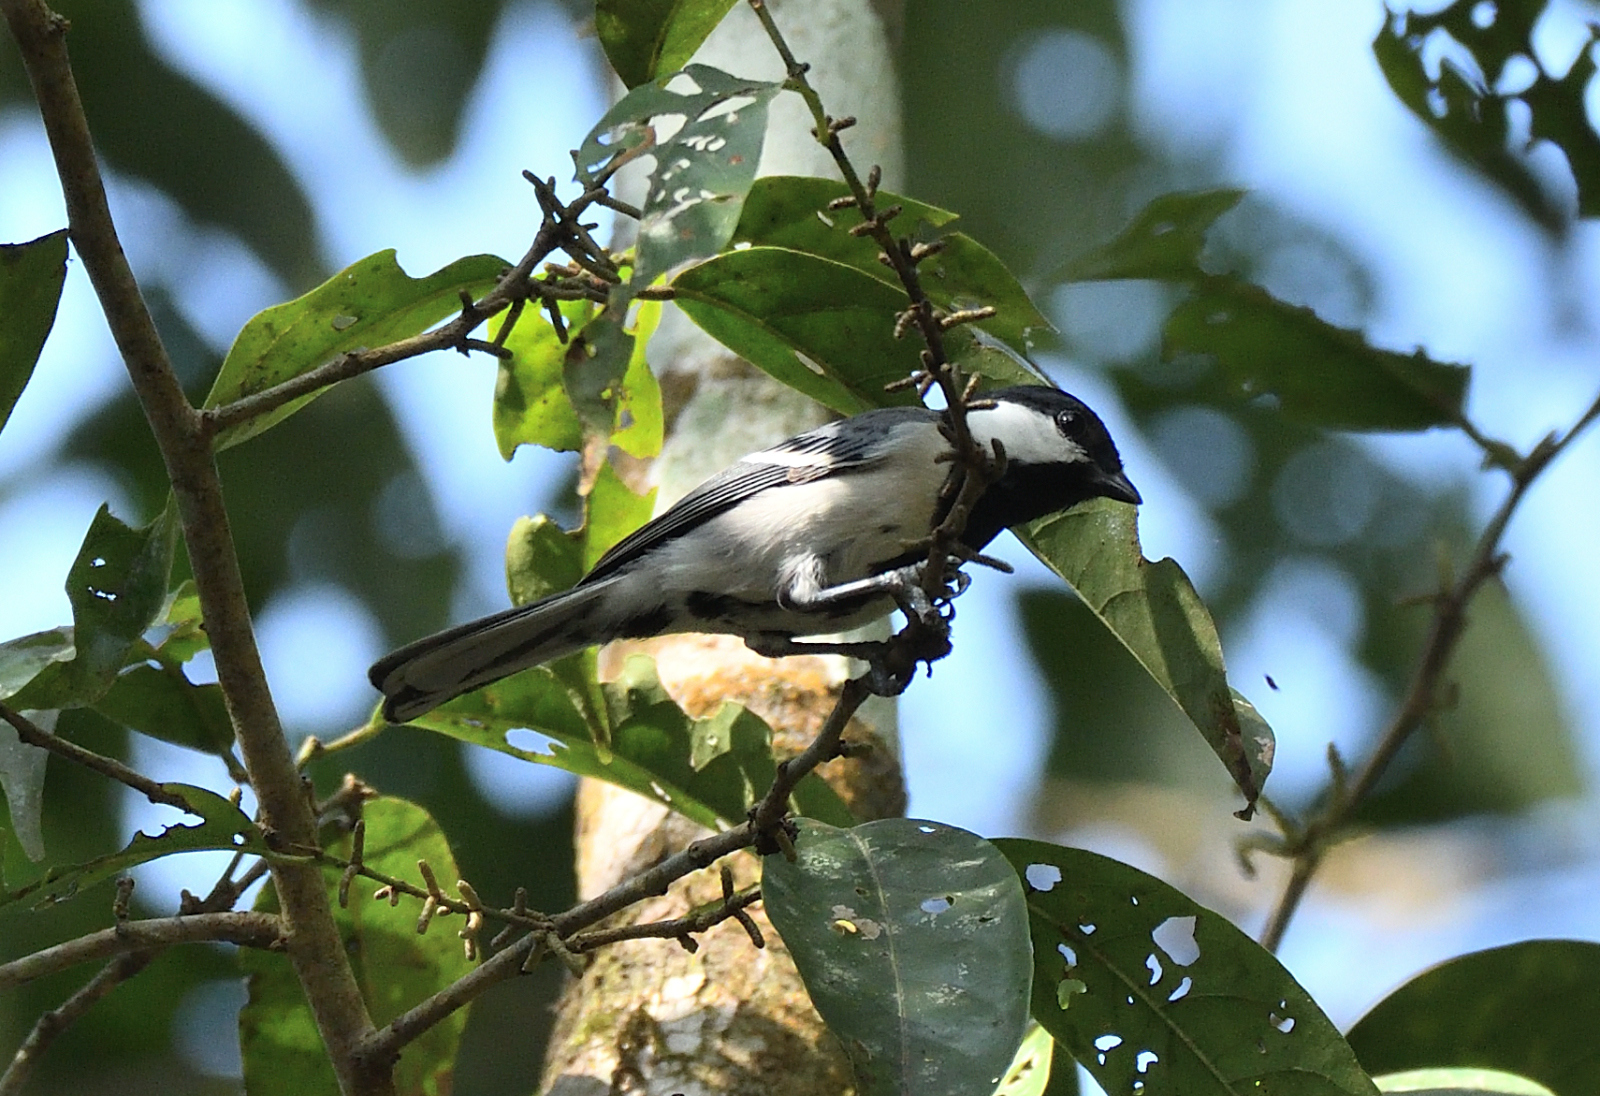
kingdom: Animalia
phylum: Chordata
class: Aves
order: Passeriformes
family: Paridae
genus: Parus
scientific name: Parus cinereus
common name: Cinereous tit
